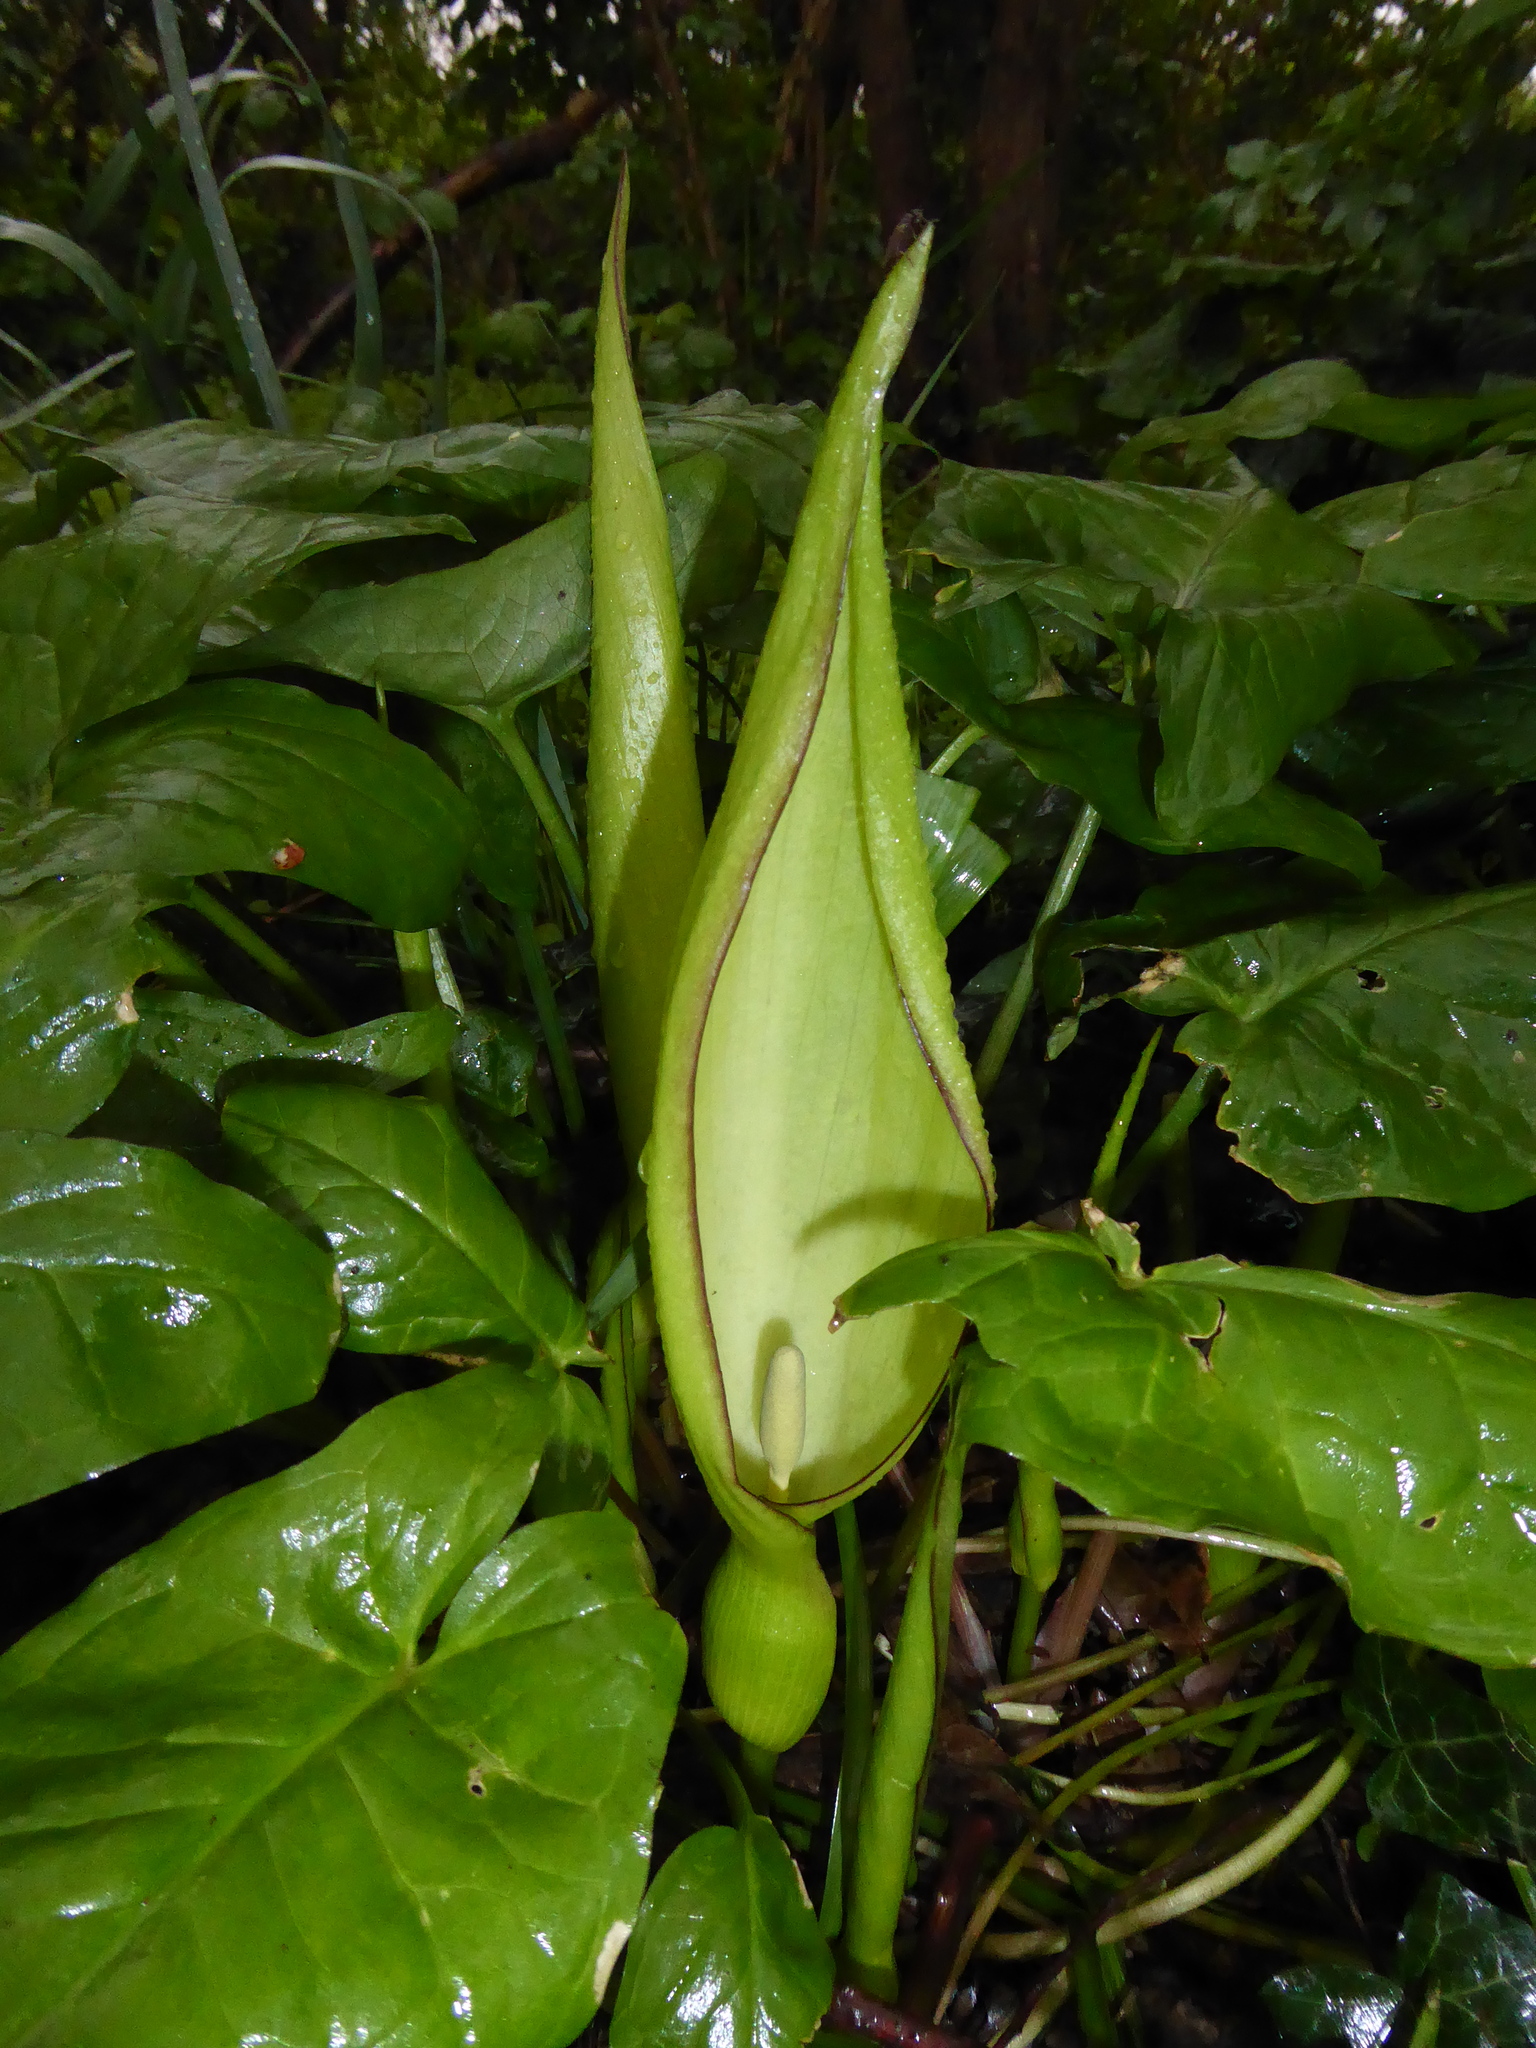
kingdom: Plantae
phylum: Tracheophyta
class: Liliopsida
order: Alismatales
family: Araceae
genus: Arum
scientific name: Arum maculatum
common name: Lords-and-ladies
